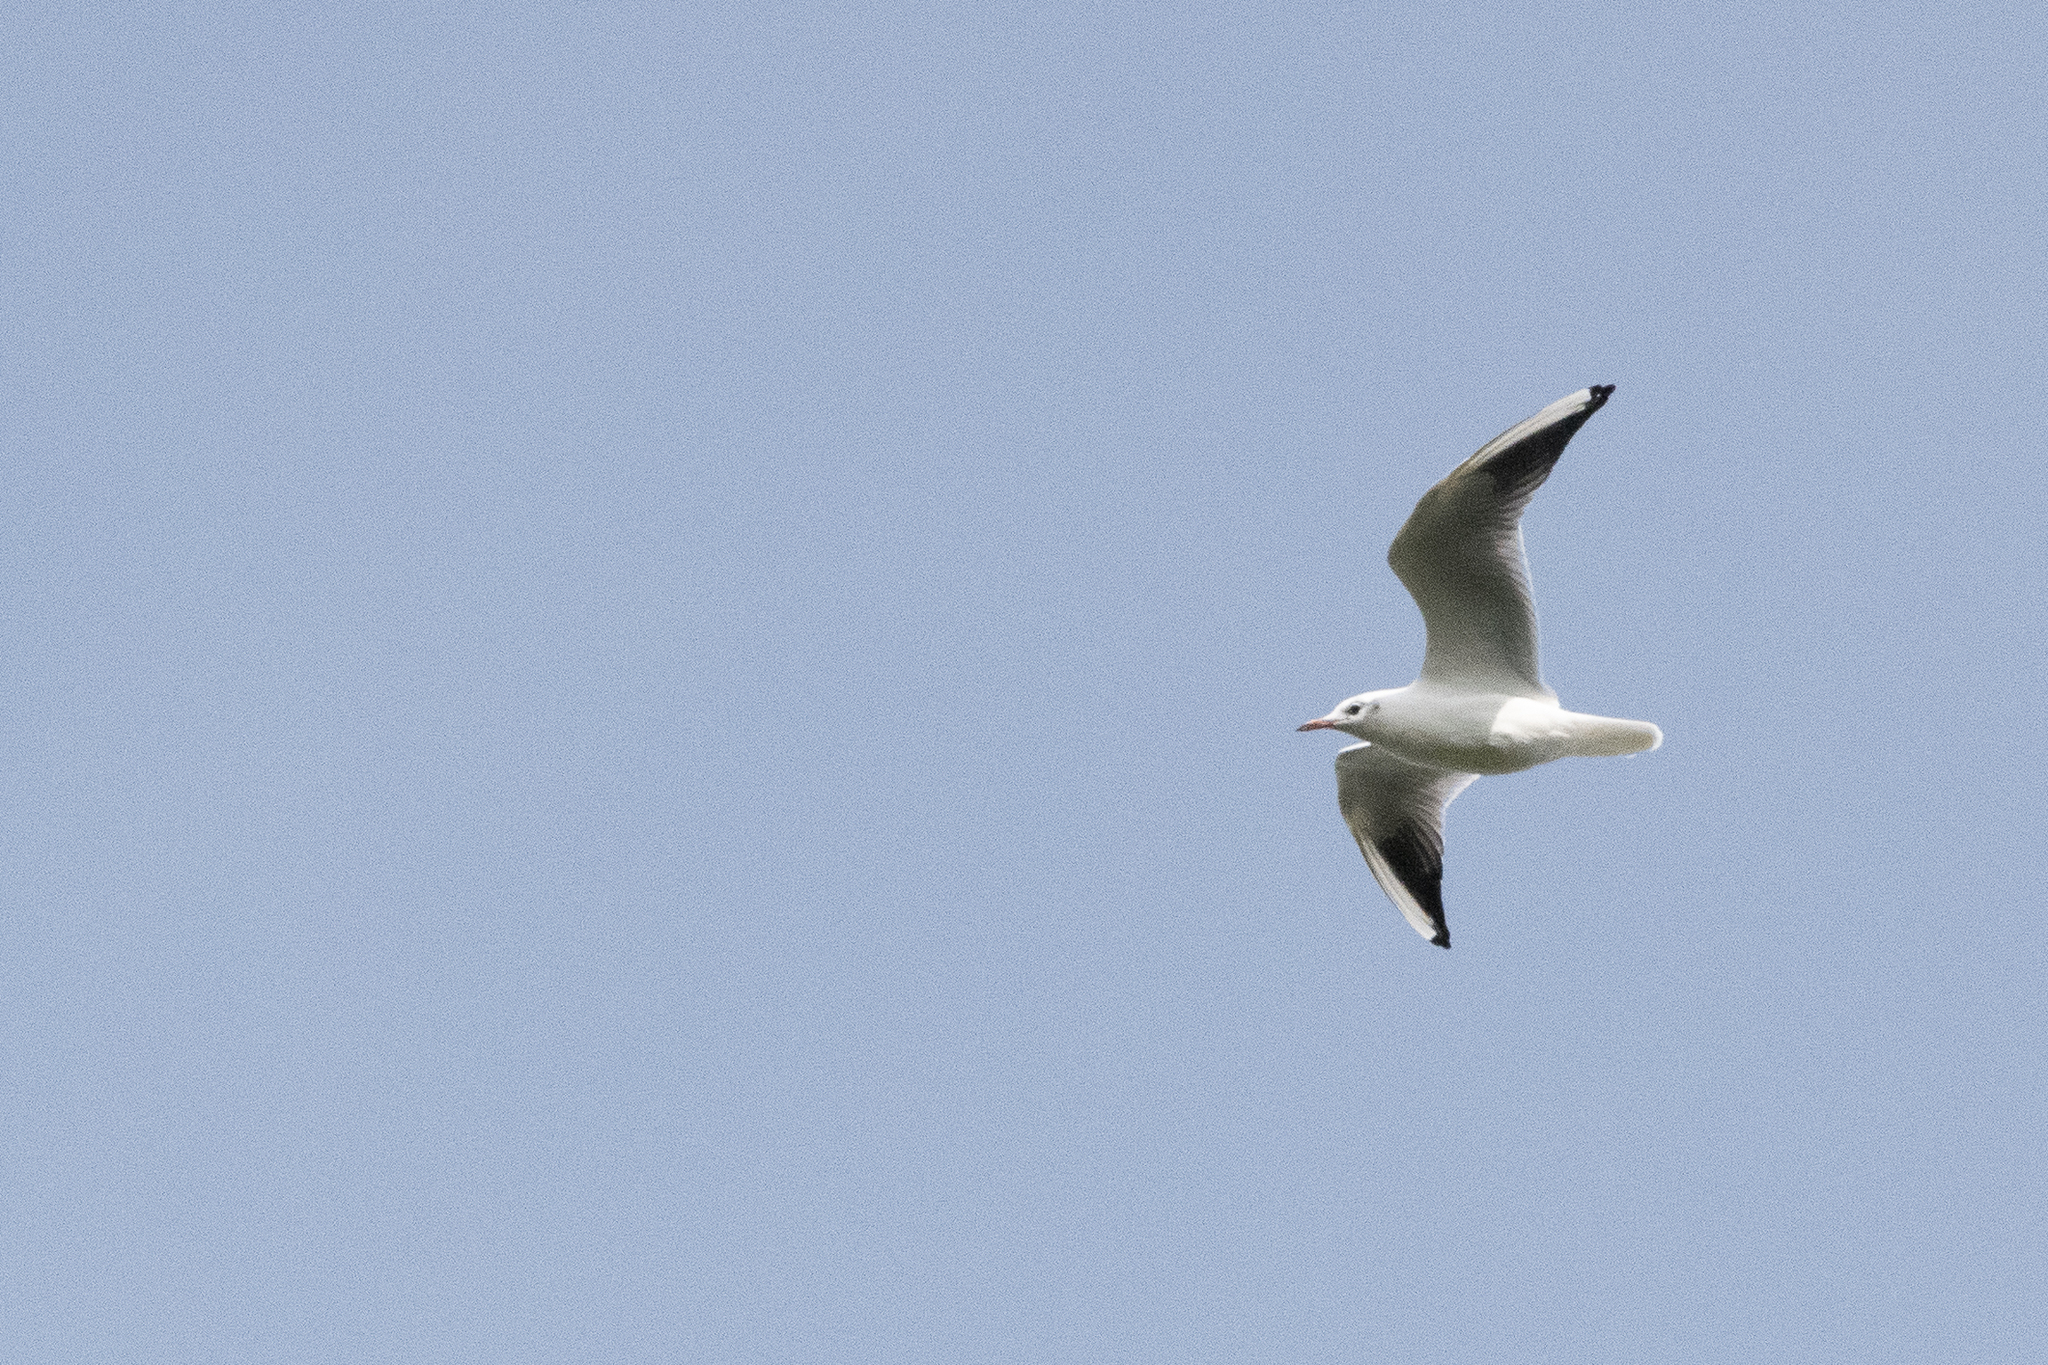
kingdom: Animalia
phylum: Chordata
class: Aves
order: Charadriiformes
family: Laridae
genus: Chroicocephalus
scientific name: Chroicocephalus ridibundus
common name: Black-headed gull
